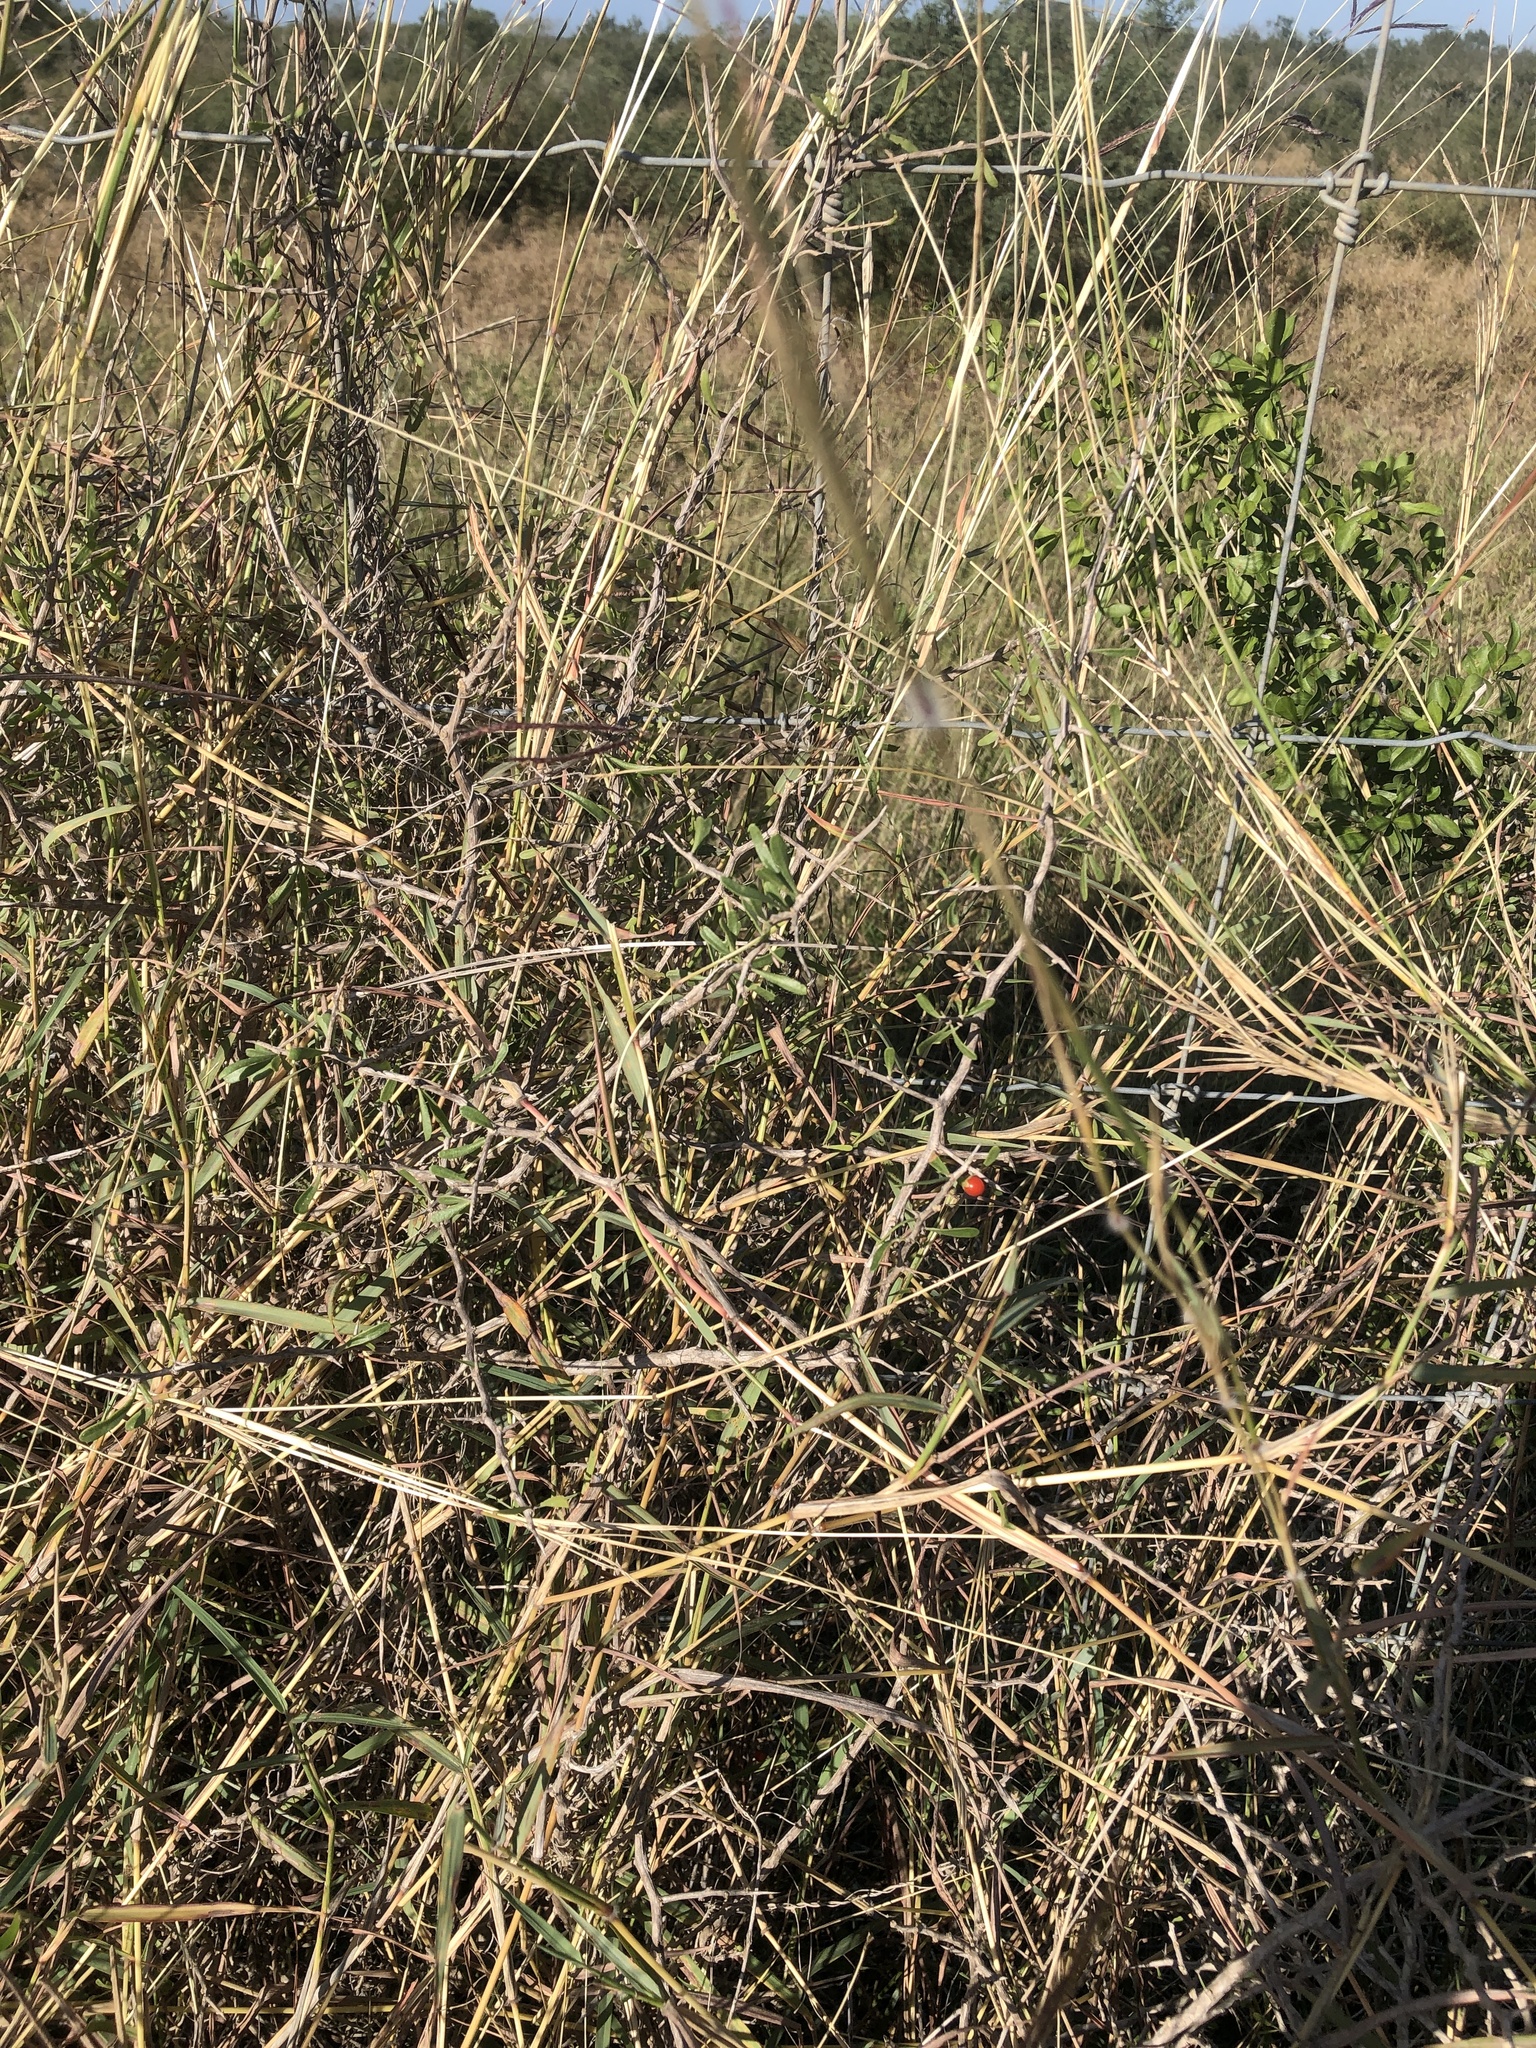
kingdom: Plantae
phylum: Tracheophyta
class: Magnoliopsida
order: Solanales
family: Solanaceae
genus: Lycium
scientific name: Lycium berlandieri
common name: Berlandier wolfberry
